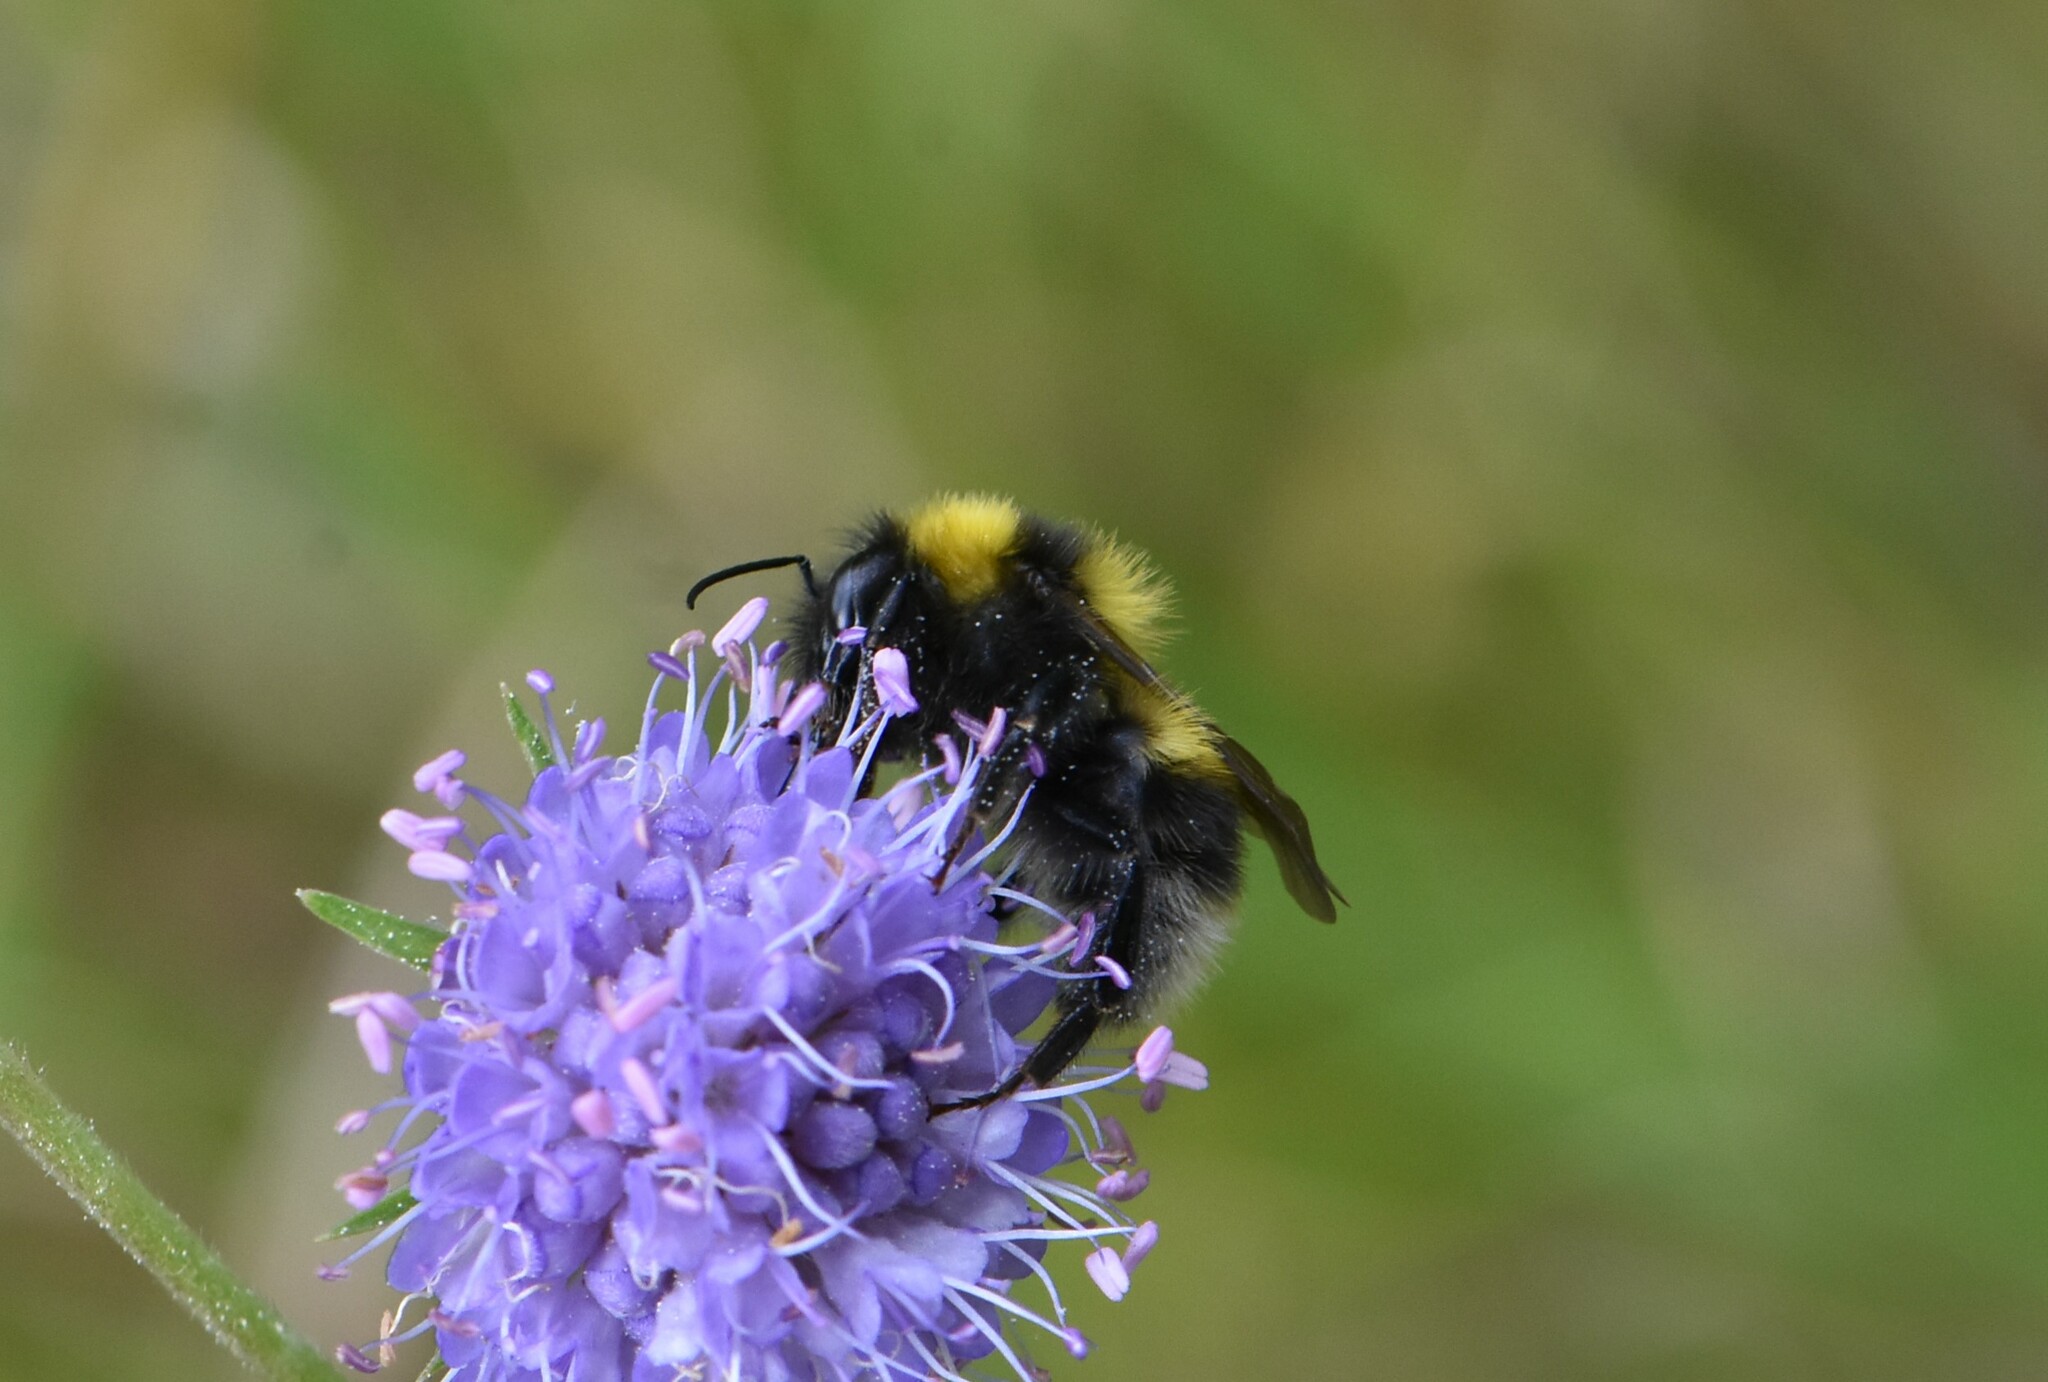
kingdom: Animalia
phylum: Arthropoda
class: Insecta
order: Hymenoptera
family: Apidae
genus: Bombus
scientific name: Bombus hortorum
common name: Garden bumblebee
